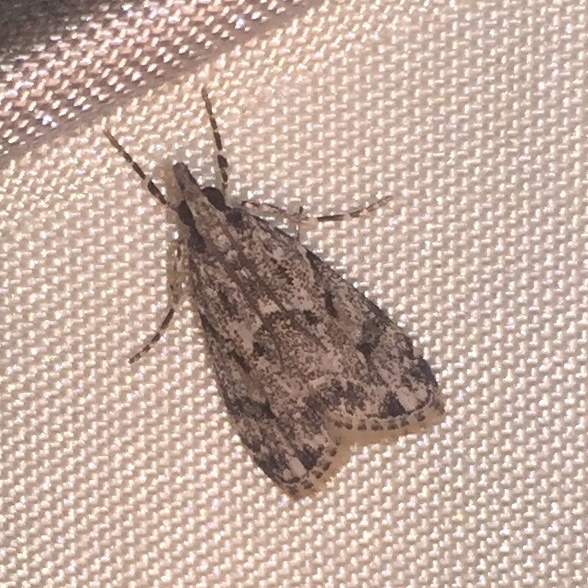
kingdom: Animalia
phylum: Arthropoda
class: Insecta
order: Lepidoptera
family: Crambidae
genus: Eudonia
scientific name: Eudonia heterosalis
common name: Mcdunnough's eudonia
